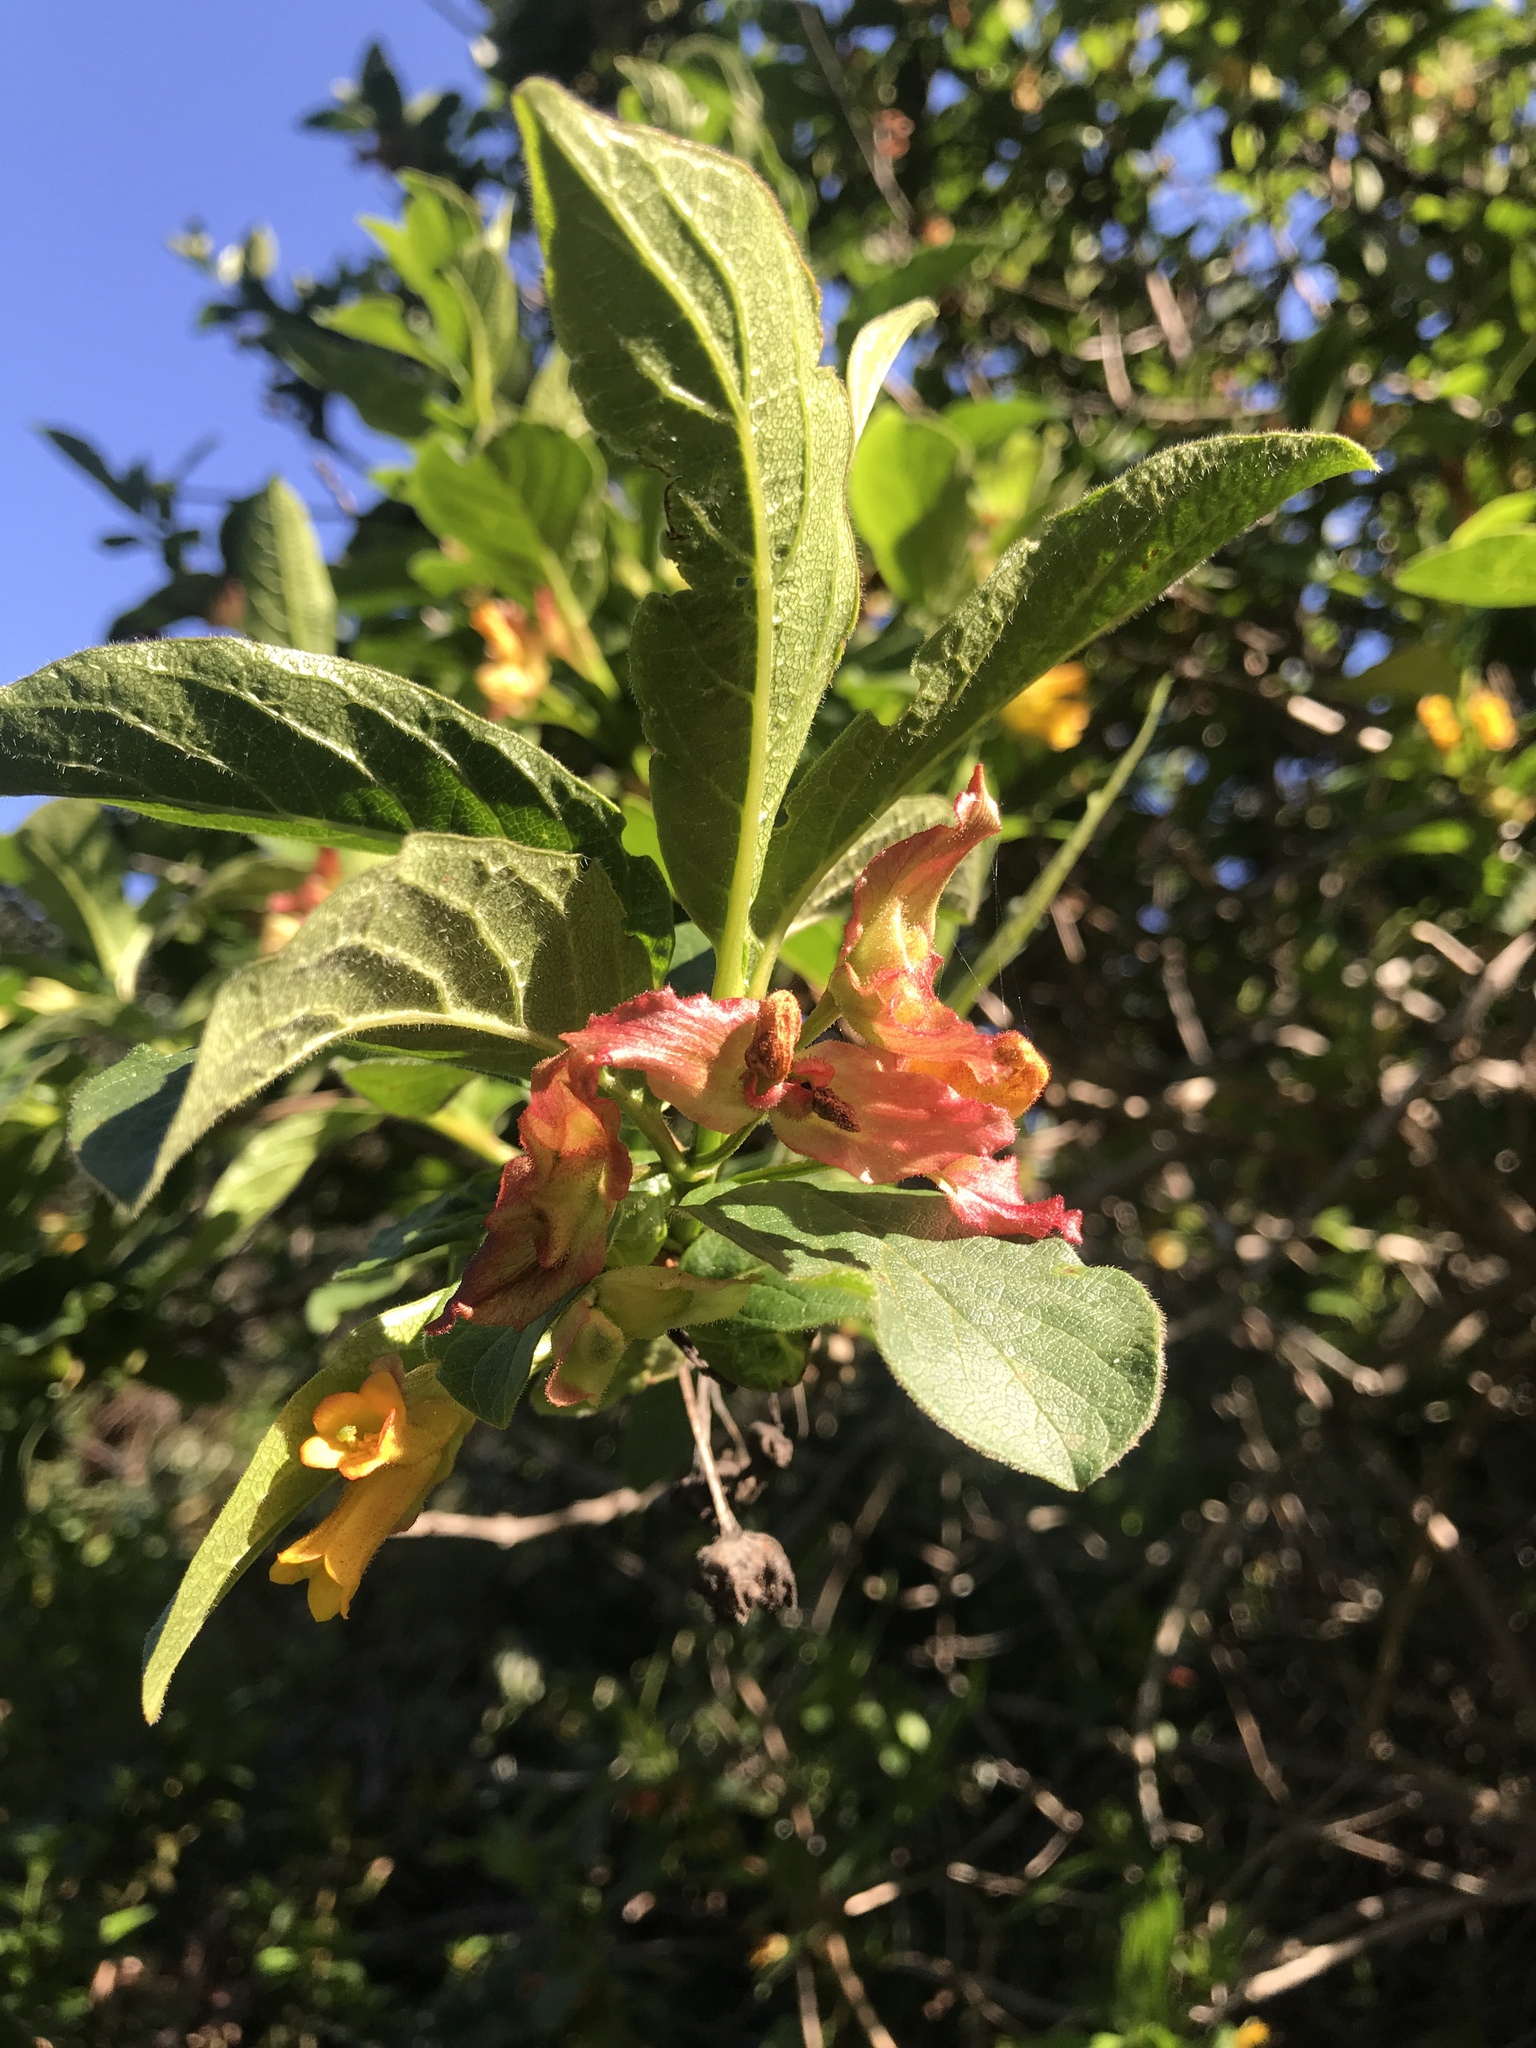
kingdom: Plantae
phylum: Tracheophyta
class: Magnoliopsida
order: Dipsacales
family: Caprifoliaceae
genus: Lonicera
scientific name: Lonicera involucrata
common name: Californian honeysuckle
